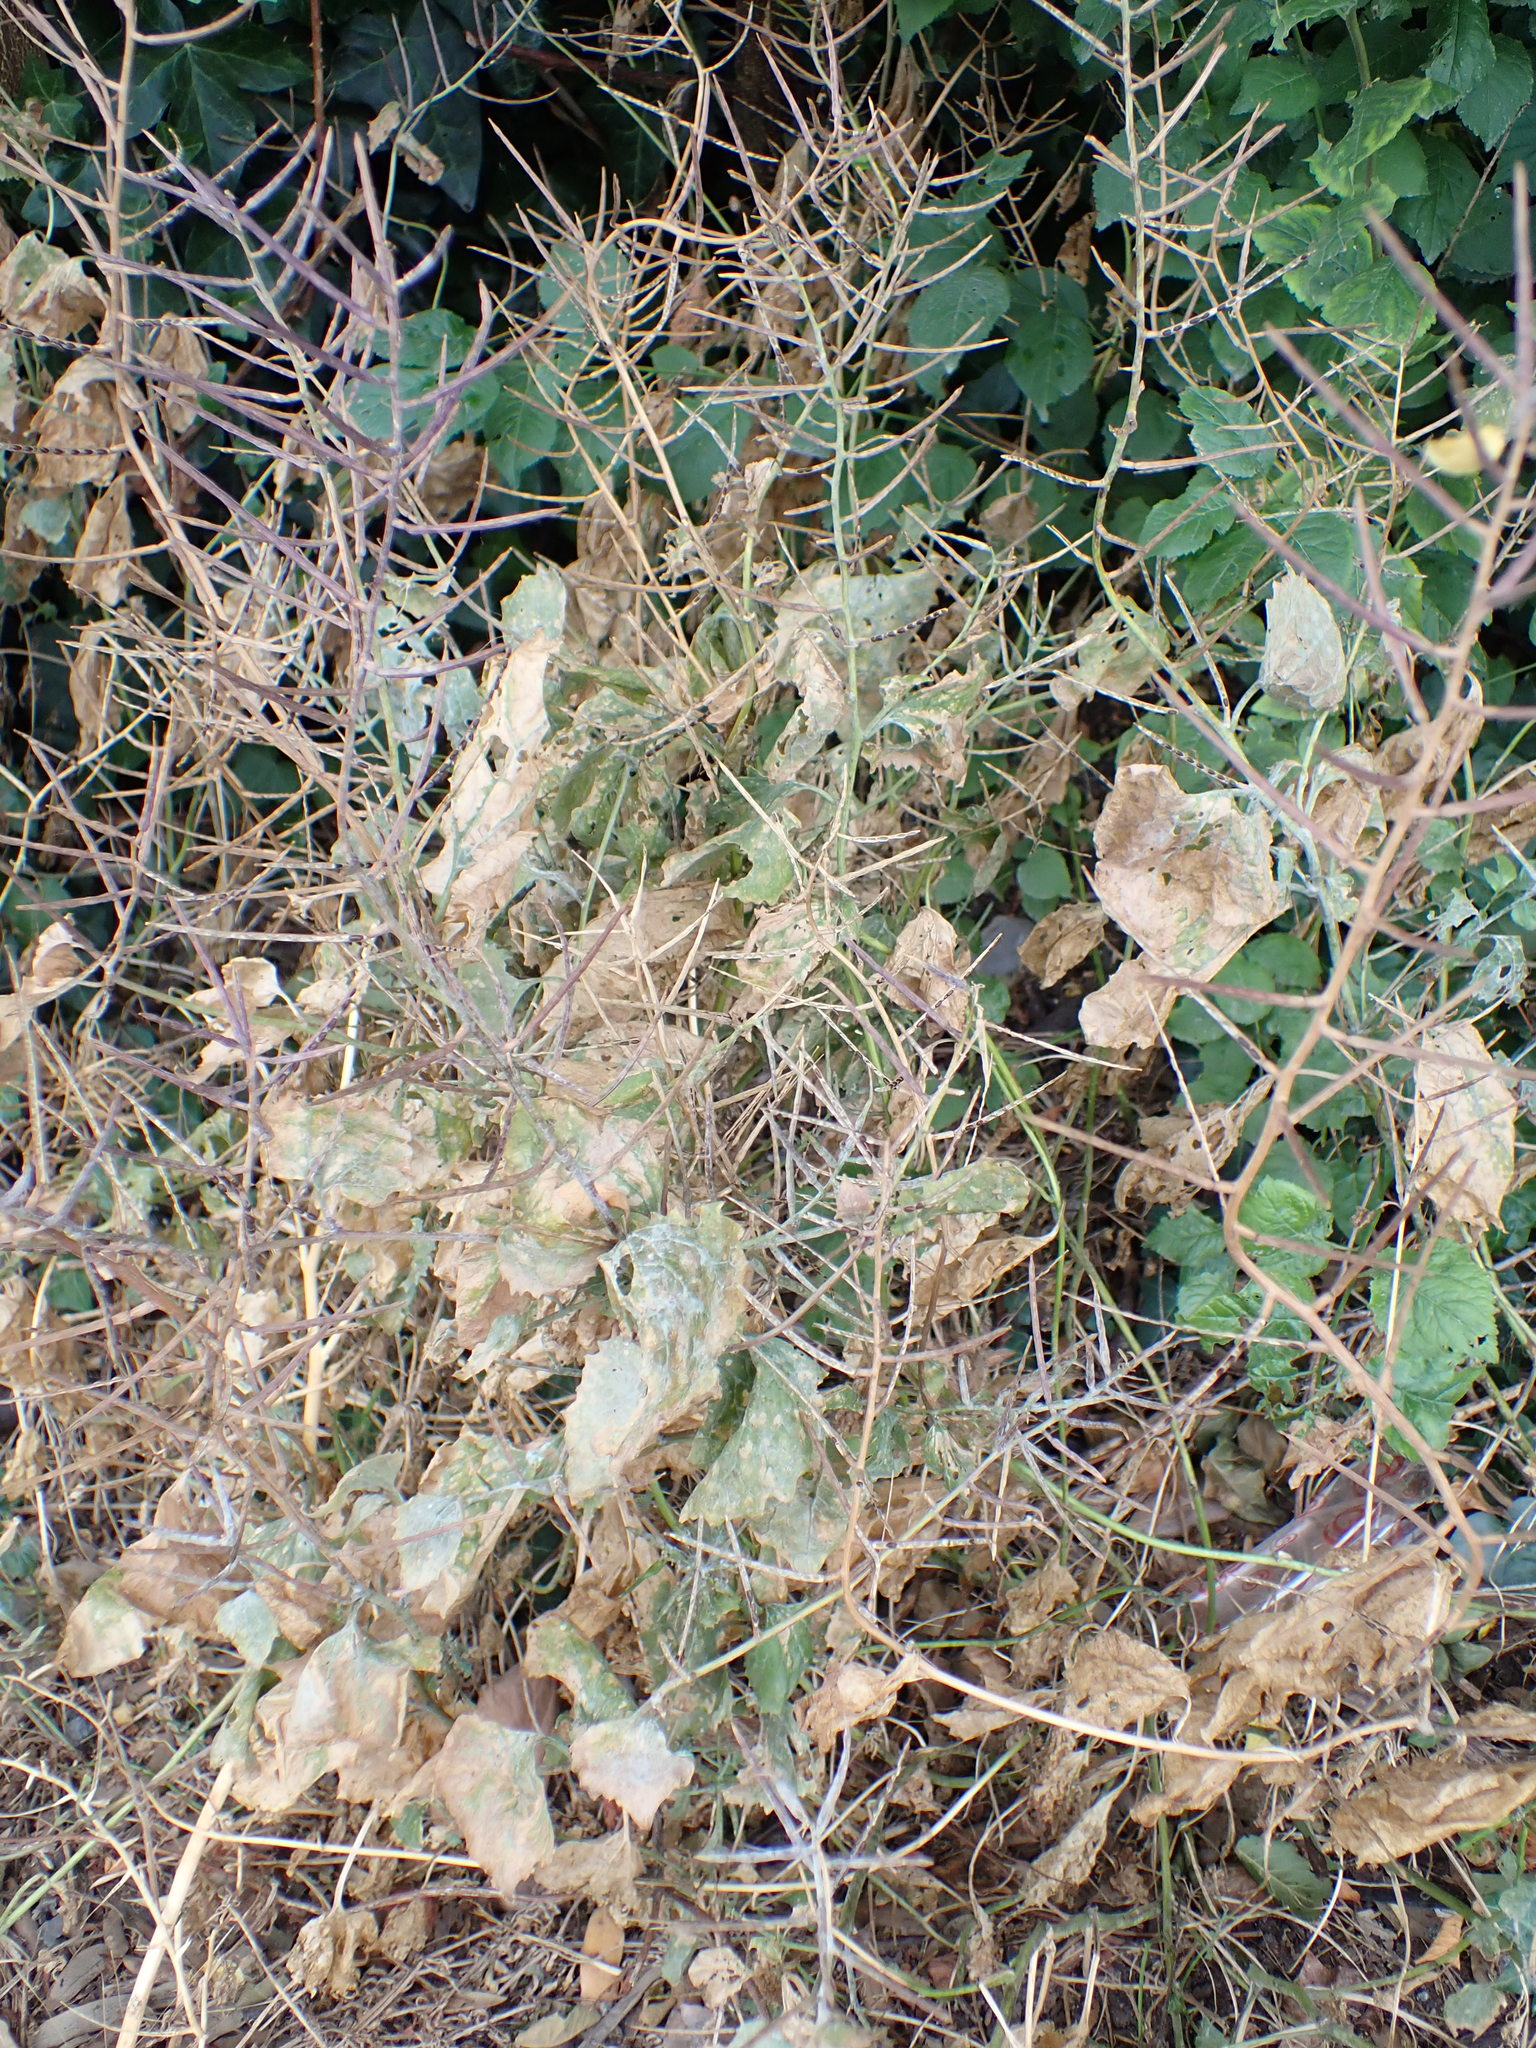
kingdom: Plantae
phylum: Tracheophyta
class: Magnoliopsida
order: Brassicales
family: Brassicaceae
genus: Alliaria
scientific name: Alliaria petiolata
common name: Garlic mustard
